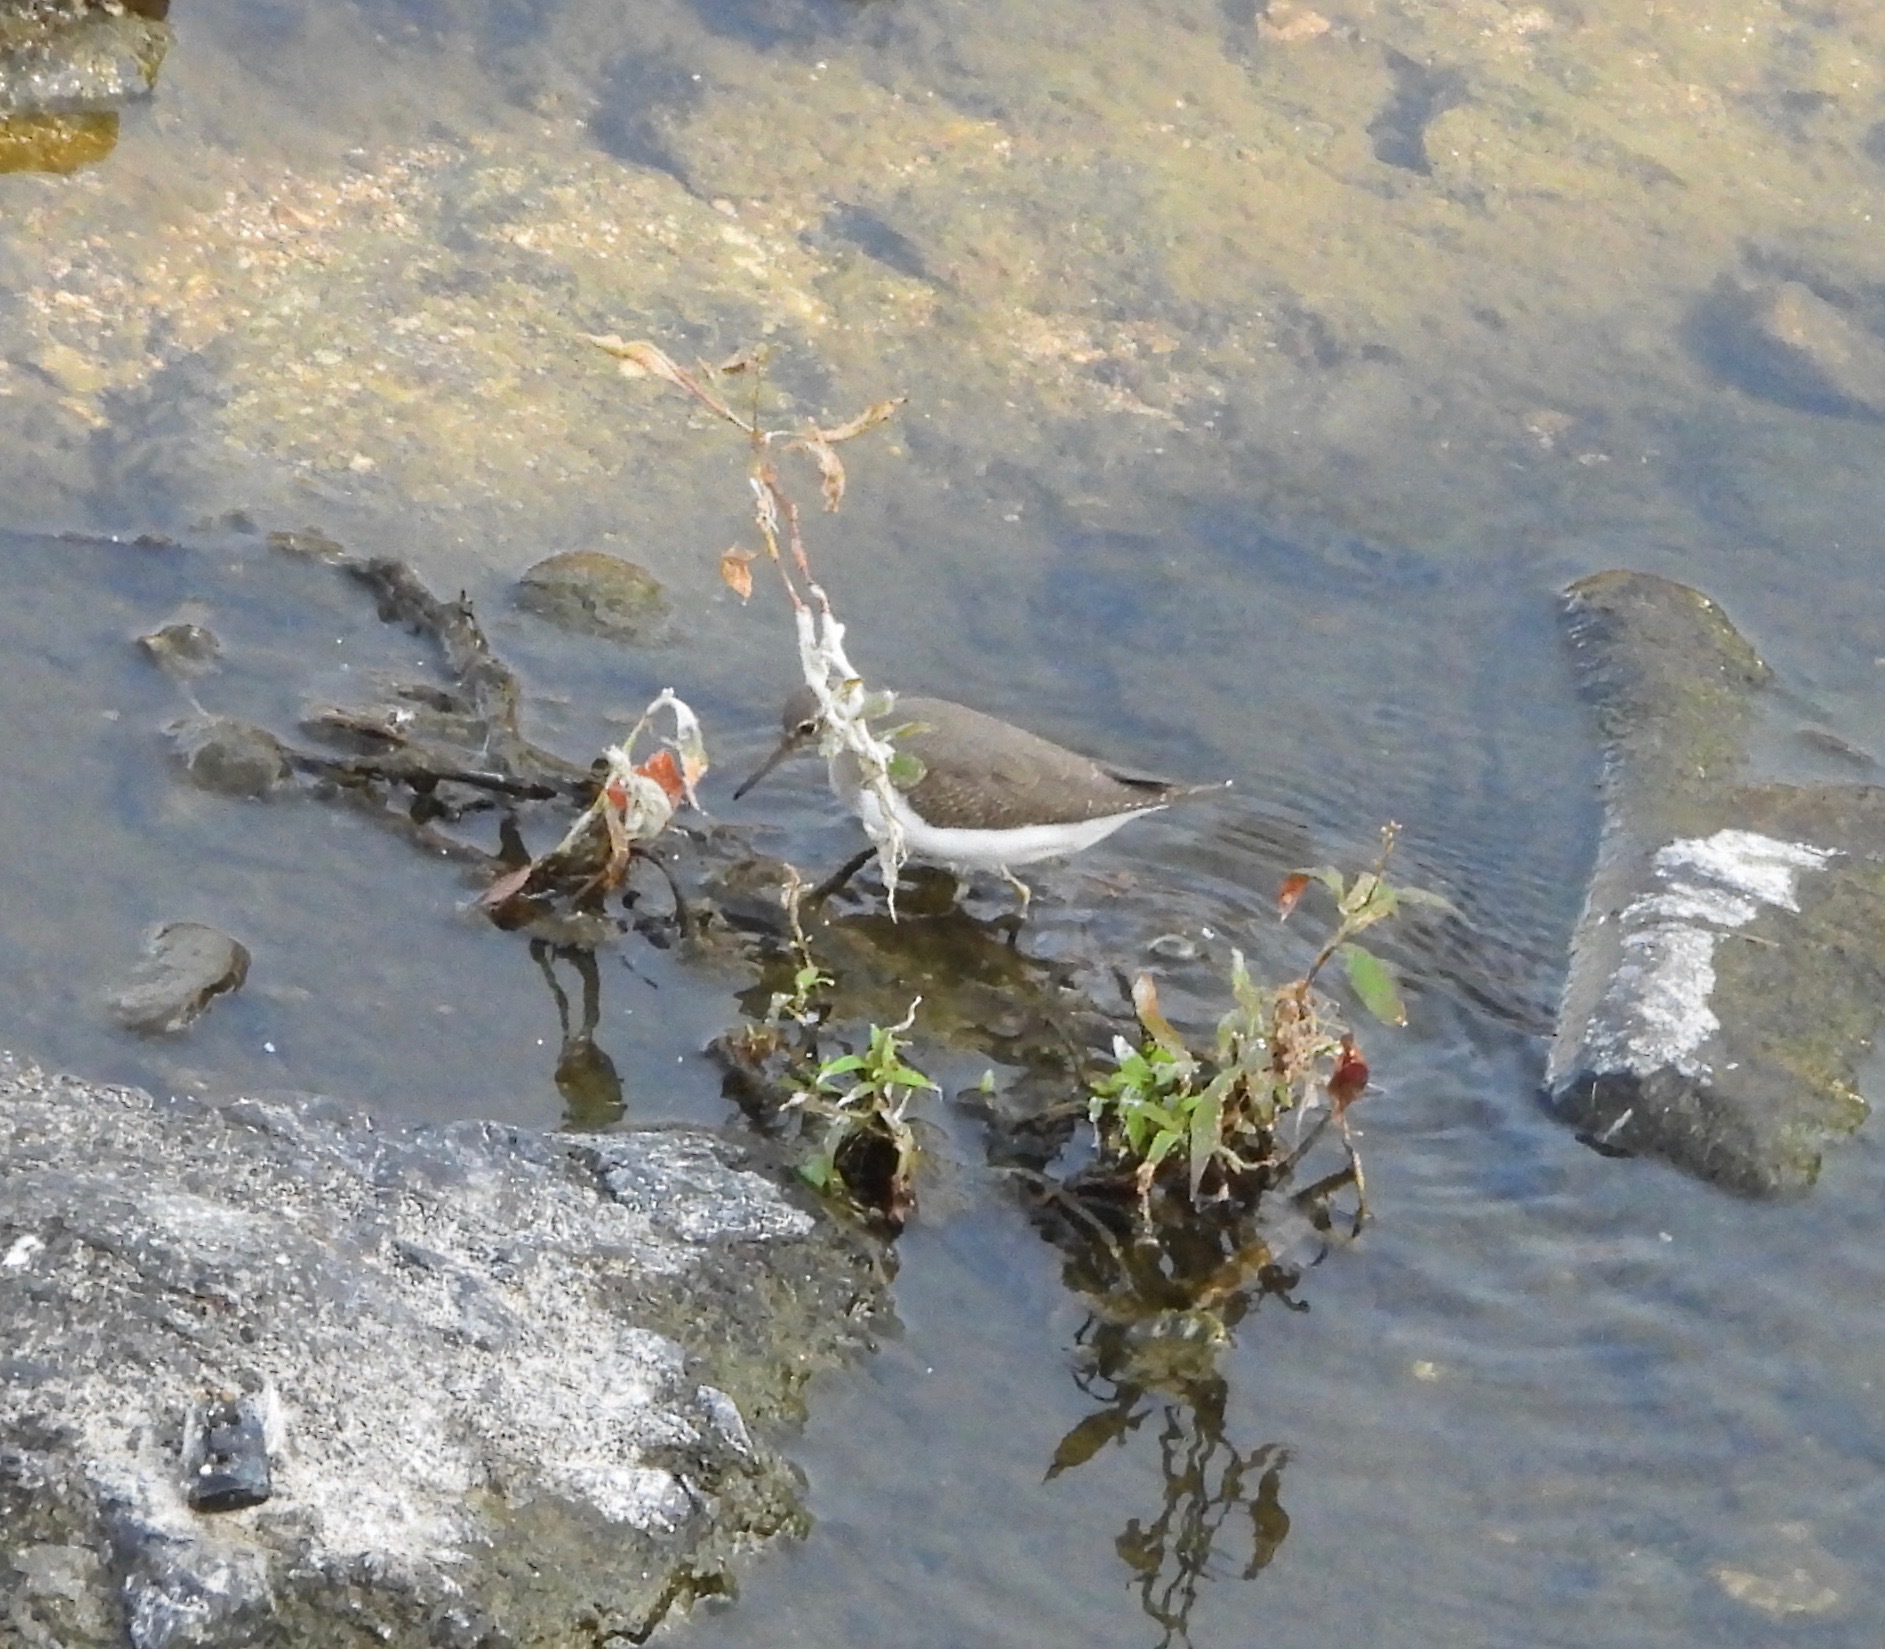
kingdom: Animalia
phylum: Chordata
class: Aves
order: Charadriiformes
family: Scolopacidae
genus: Actitis
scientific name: Actitis hypoleucos
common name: Common sandpiper
